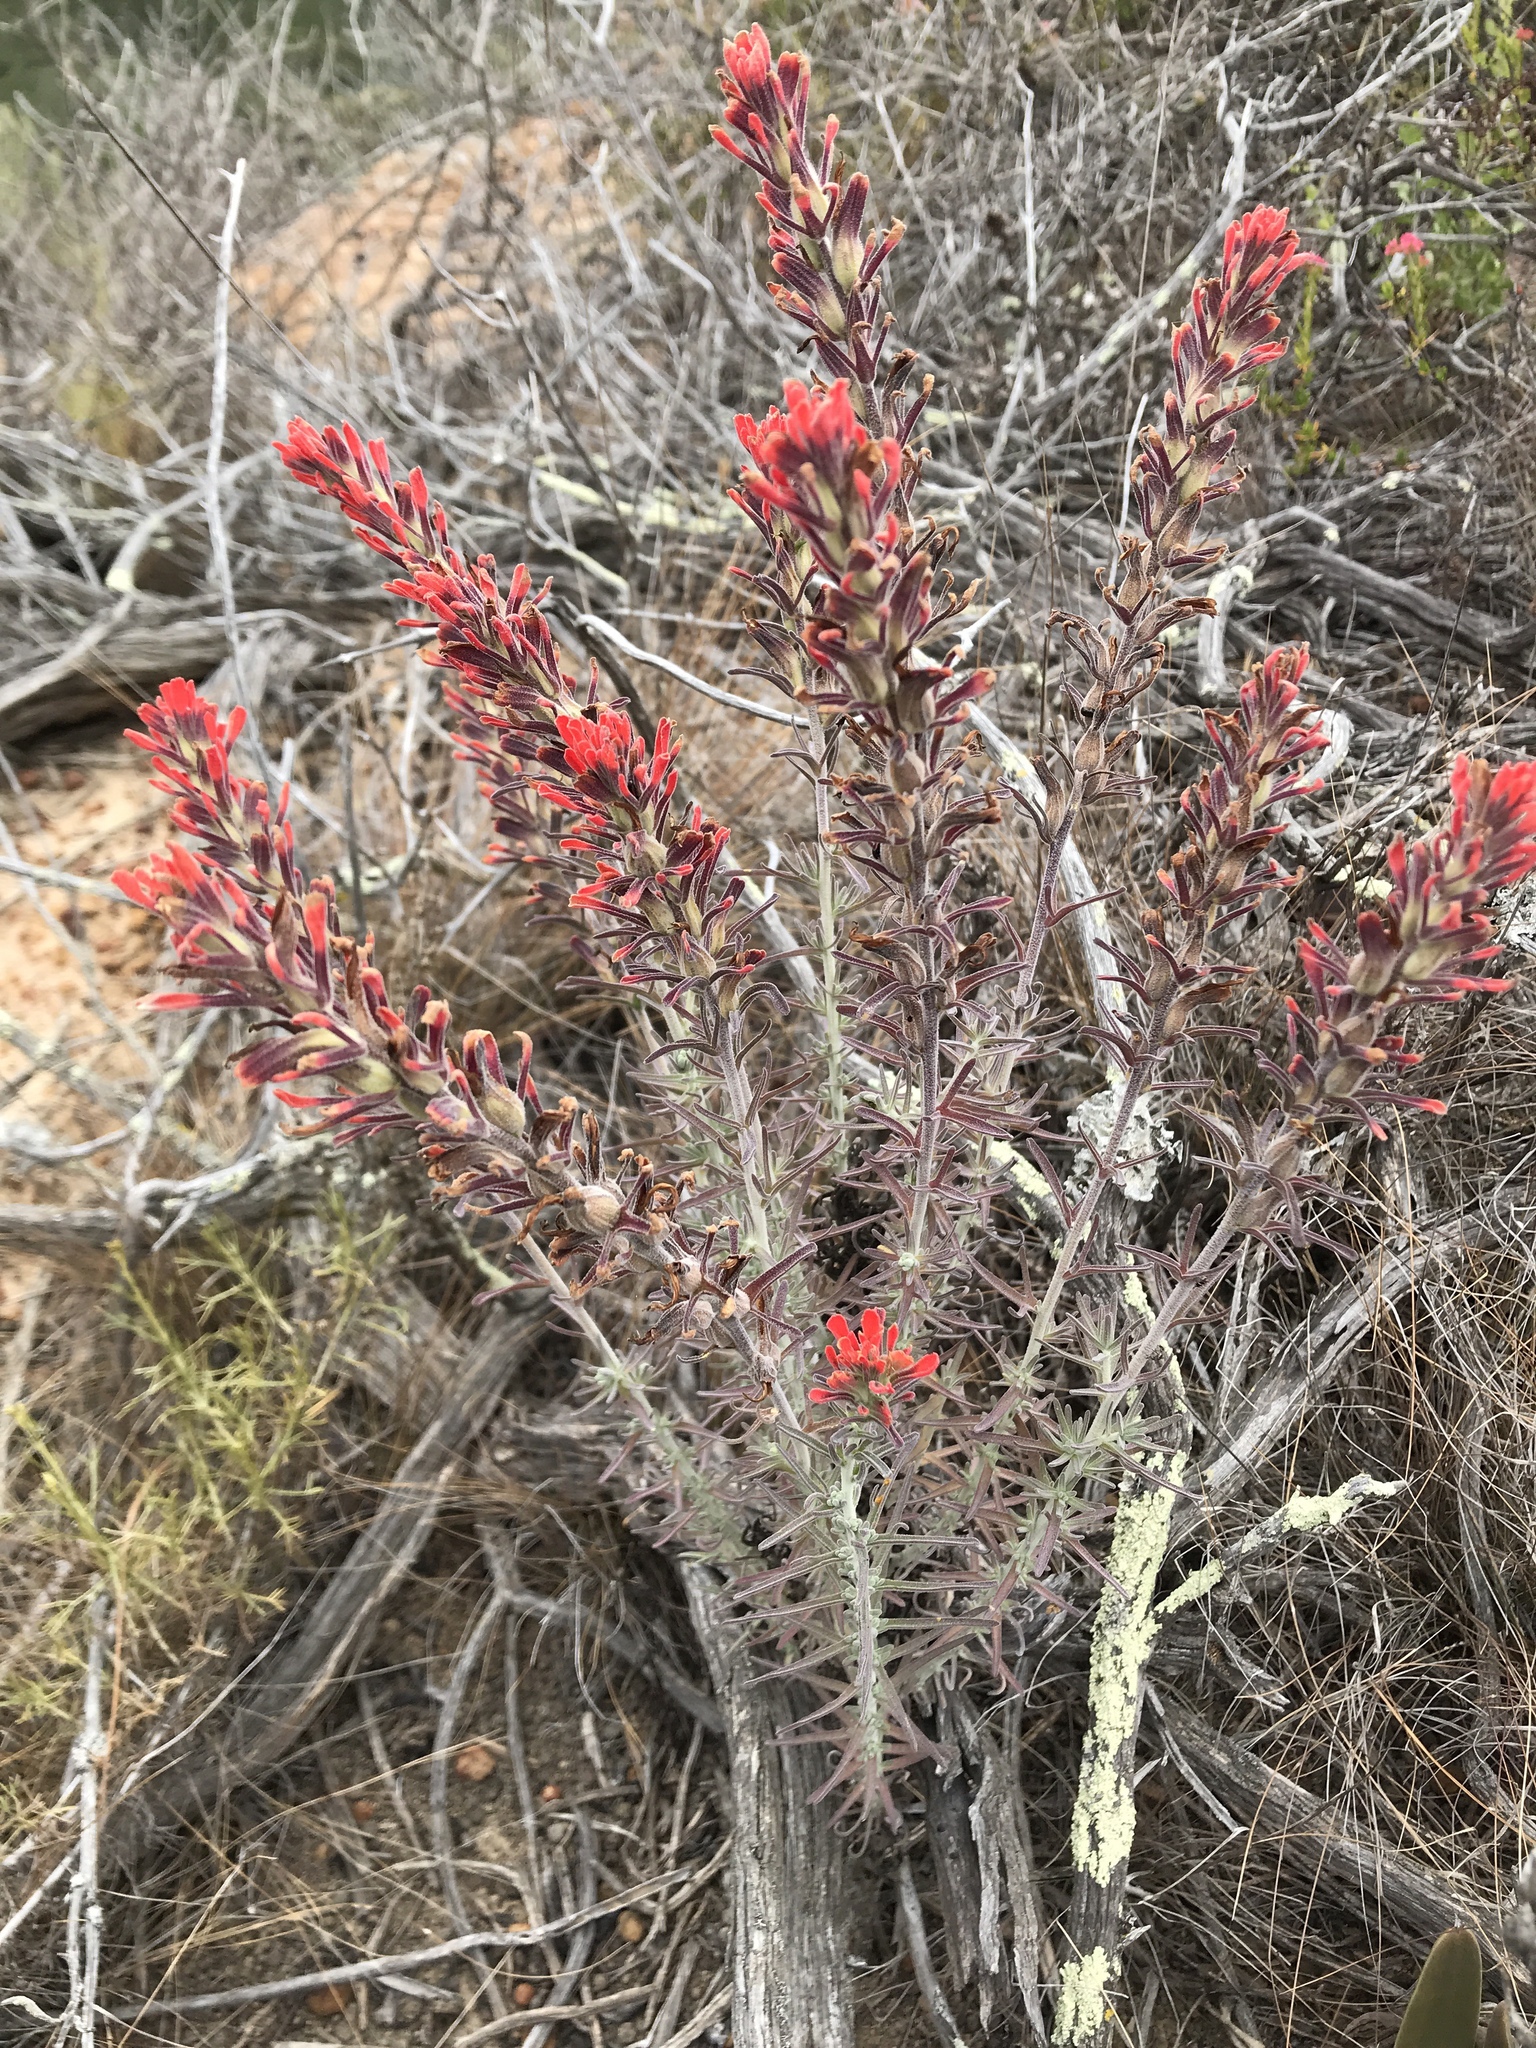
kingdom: Plantae
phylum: Tracheophyta
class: Magnoliopsida
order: Lamiales
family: Orobanchaceae
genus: Castilleja
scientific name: Castilleja foliolosa
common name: Woolly indian paintbrush
